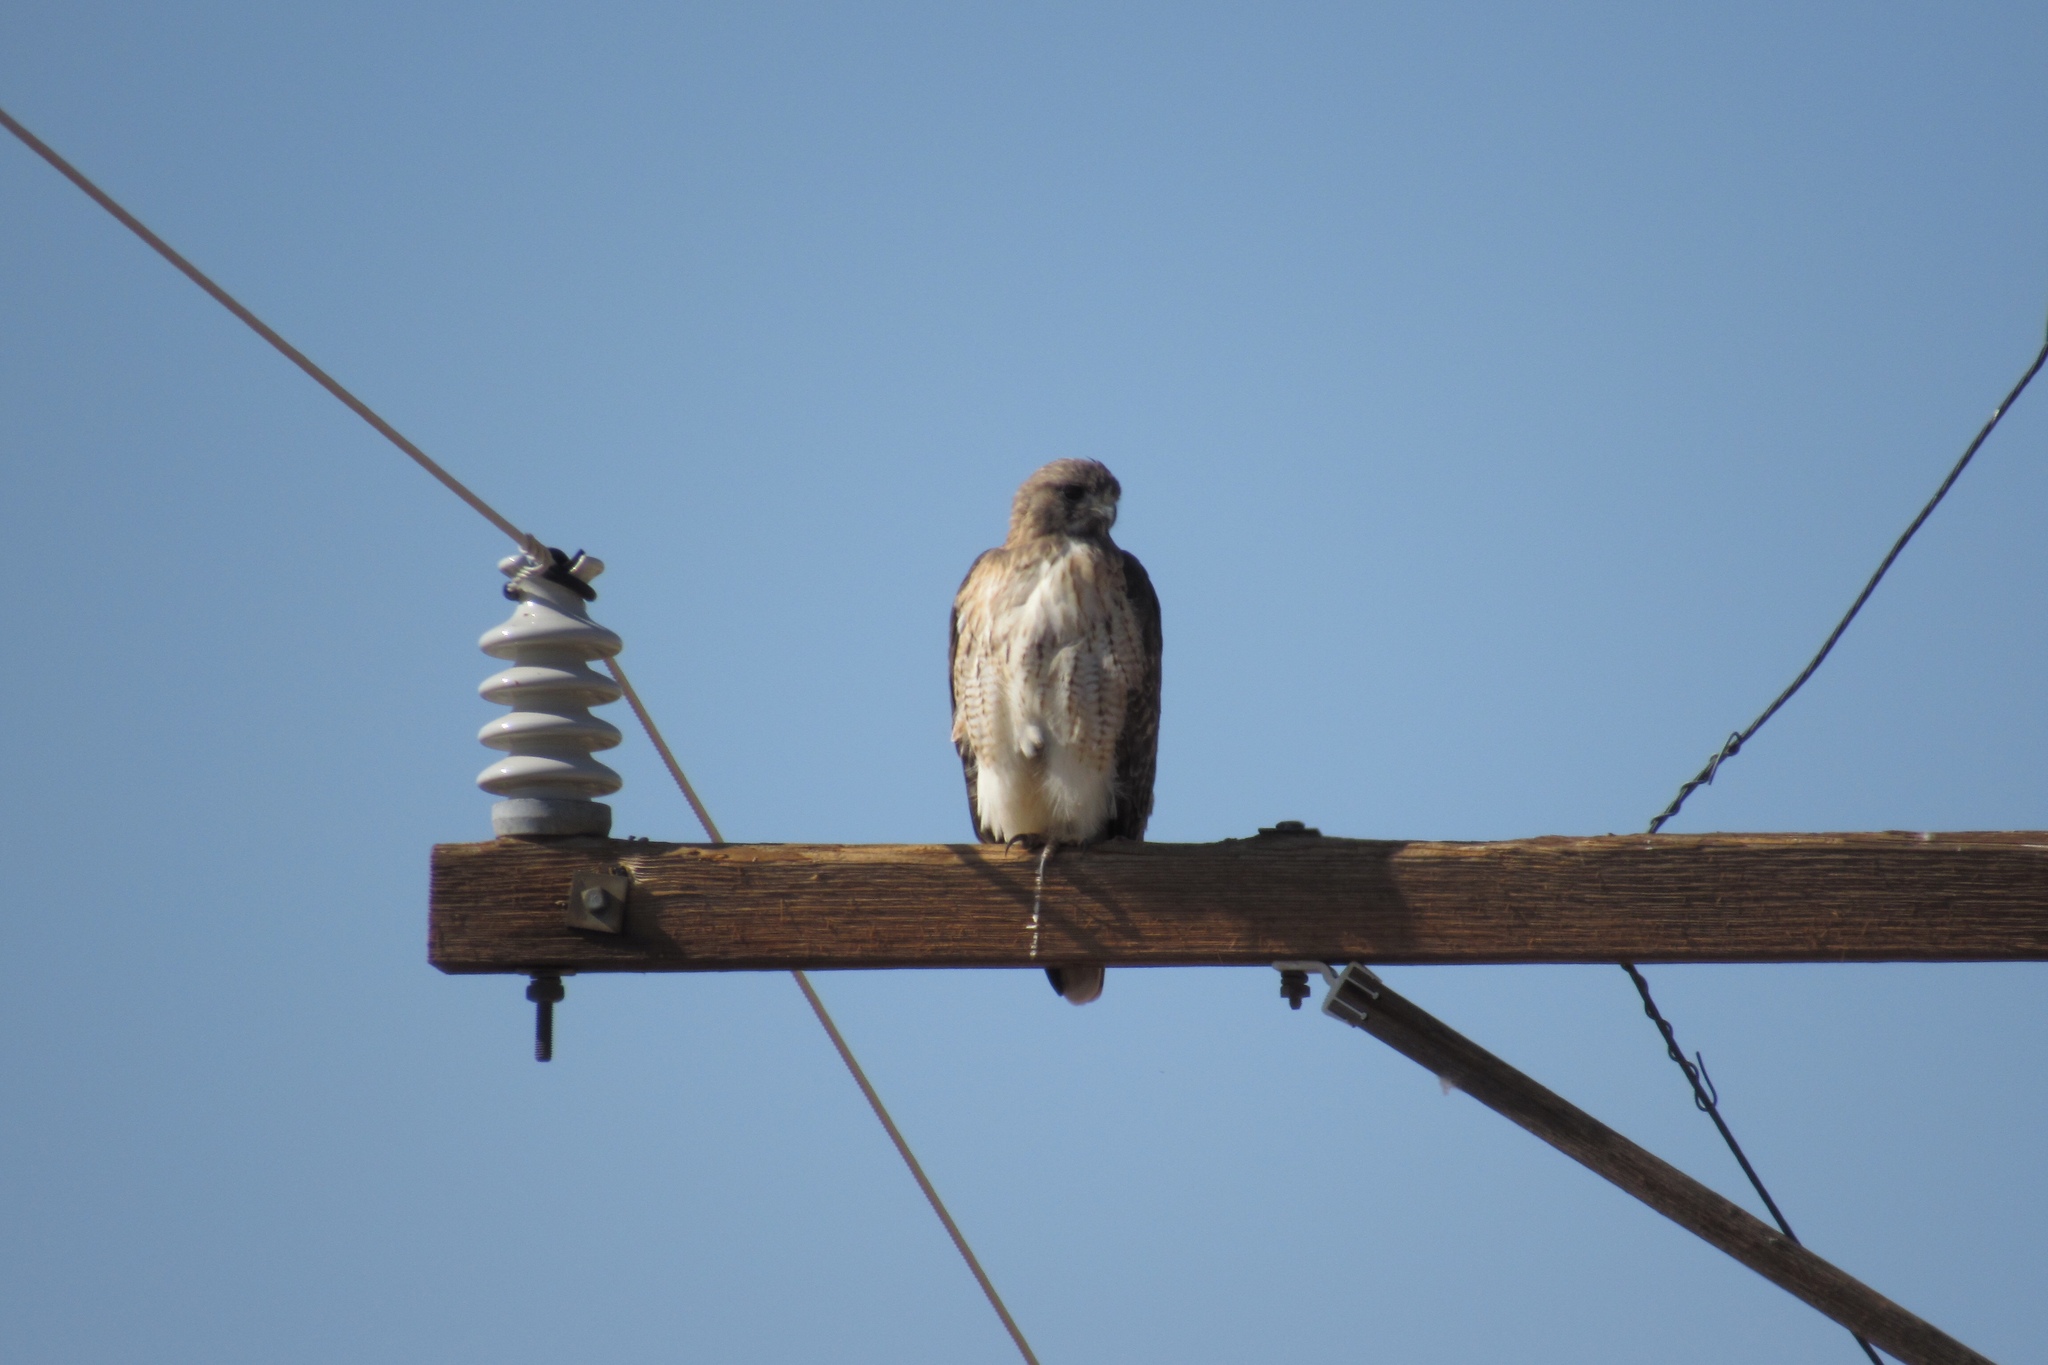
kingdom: Animalia
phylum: Chordata
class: Aves
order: Accipitriformes
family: Accipitridae
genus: Buteo
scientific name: Buteo jamaicensis
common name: Red-tailed hawk
